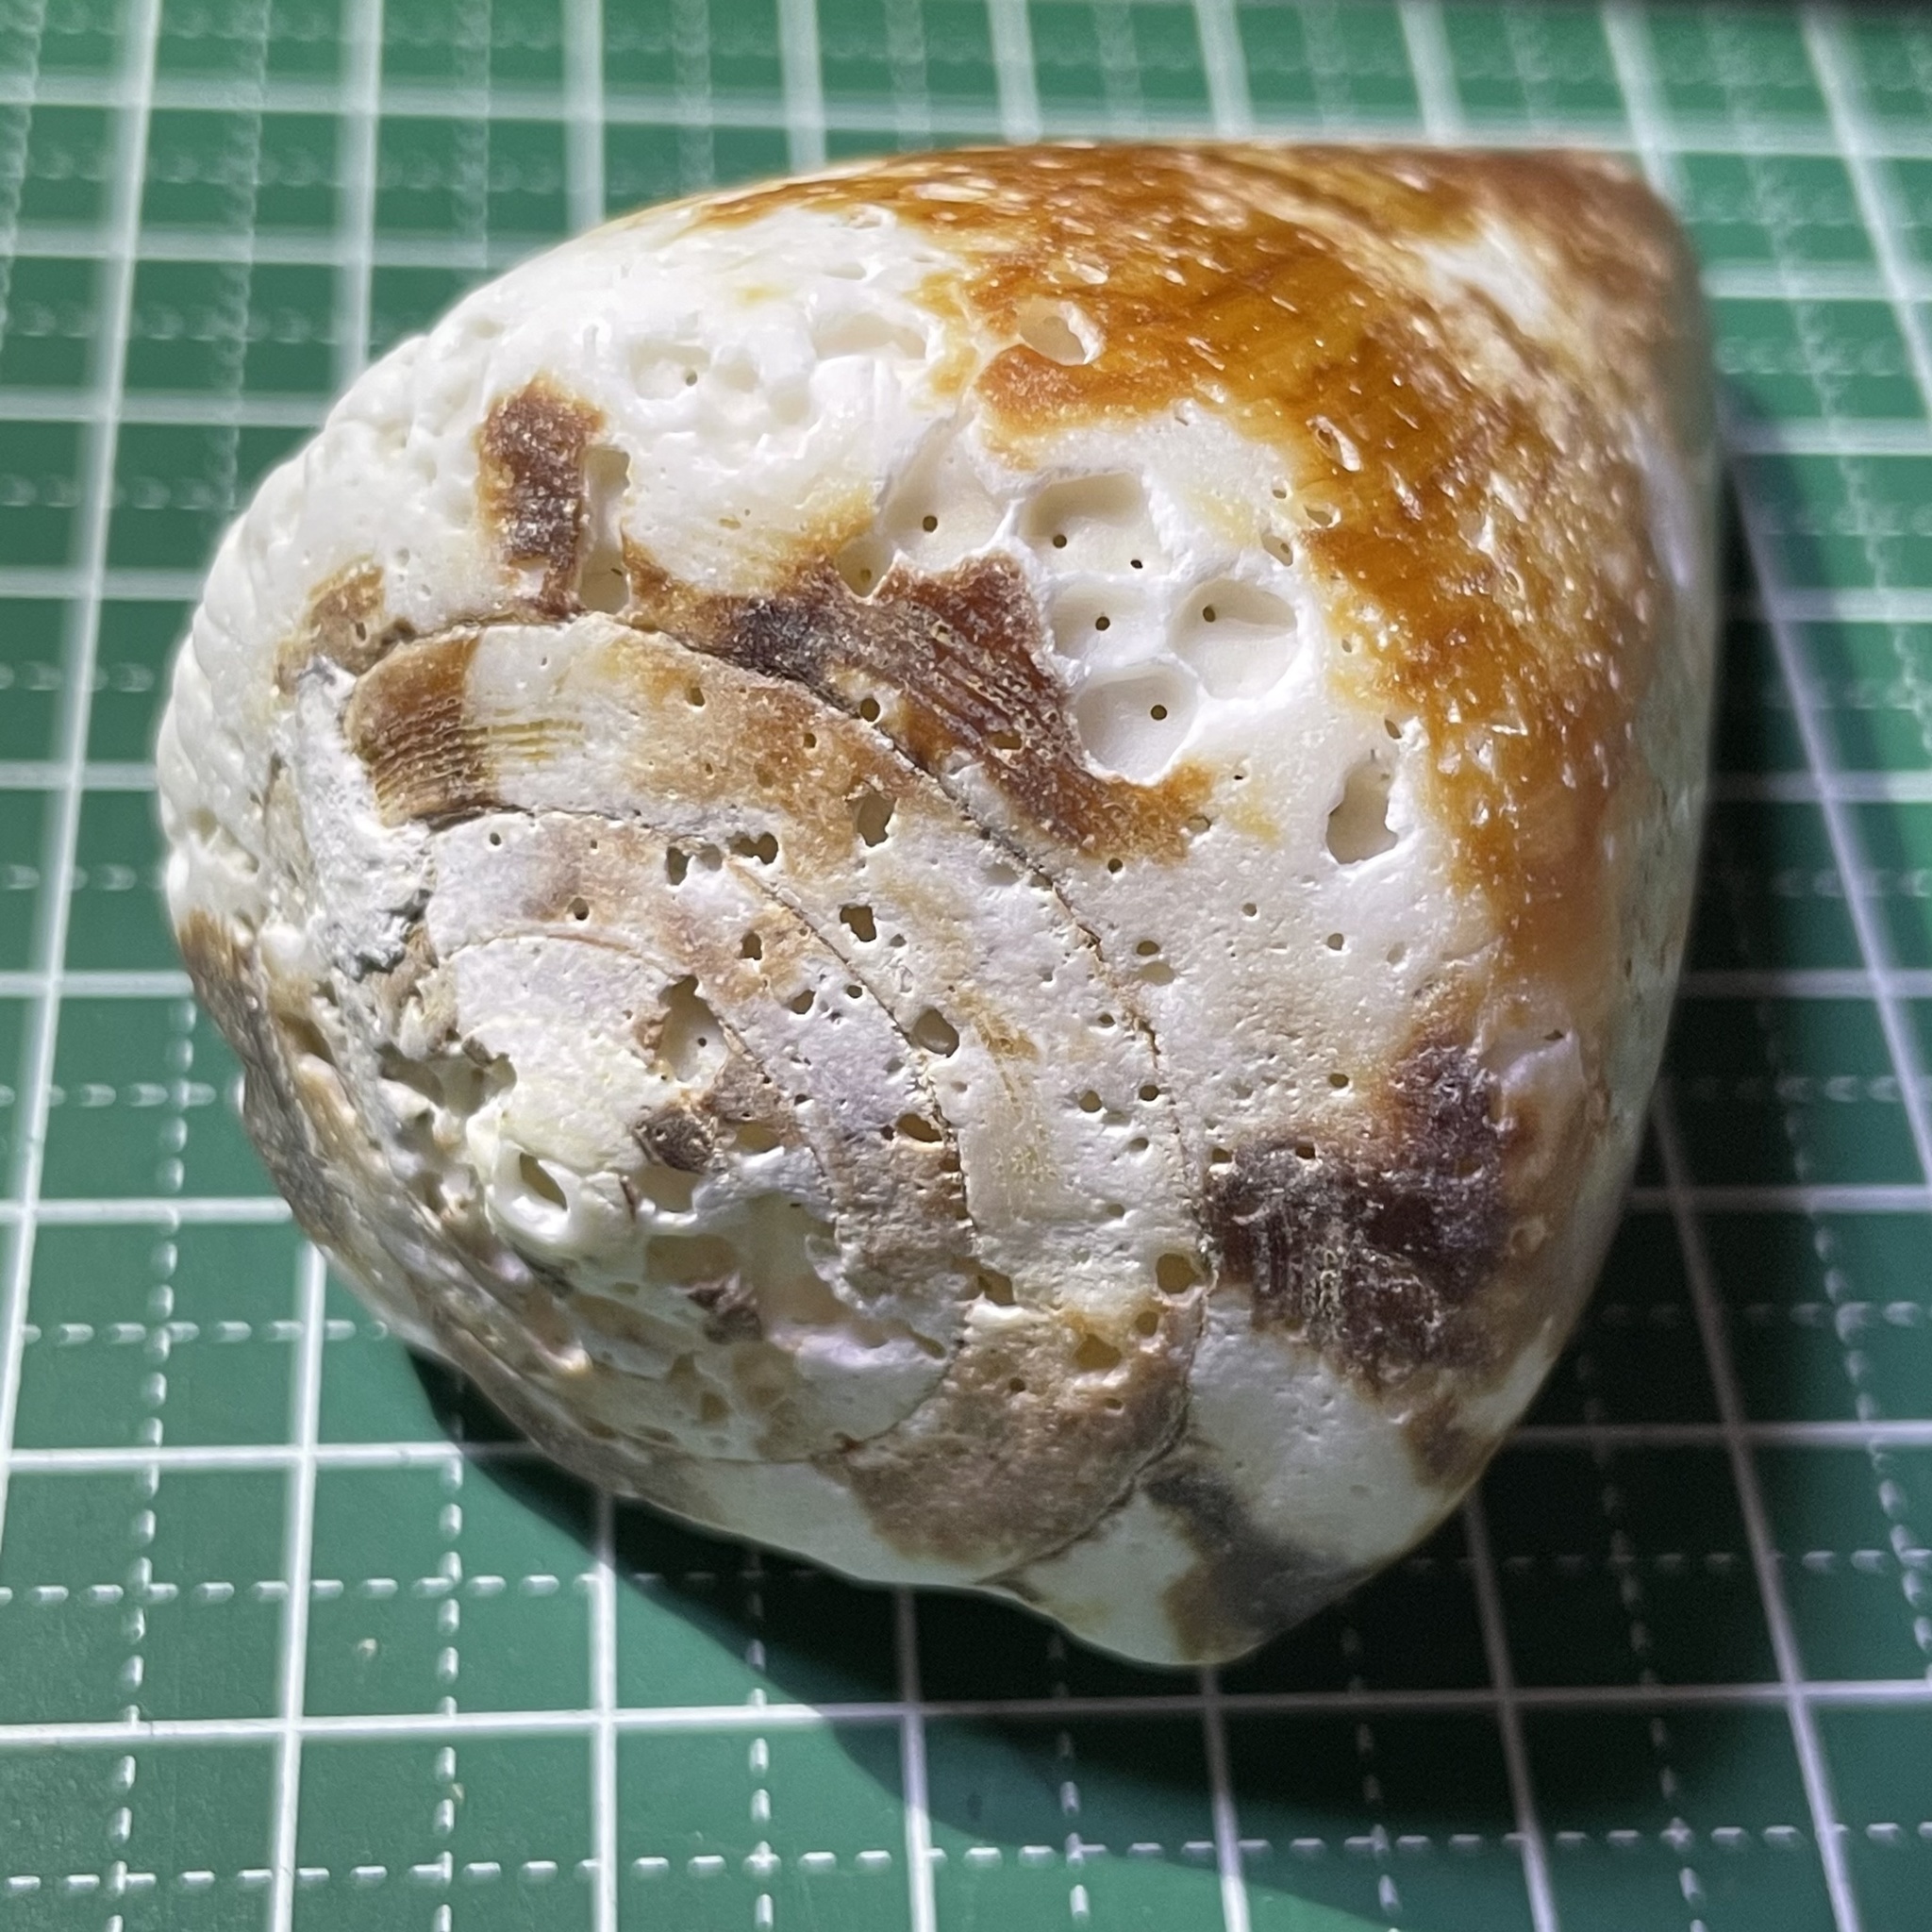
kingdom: Animalia
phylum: Mollusca
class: Gastropoda
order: Neogastropoda
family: Conidae
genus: Conus
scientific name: Conus vexillum
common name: Flag cone
